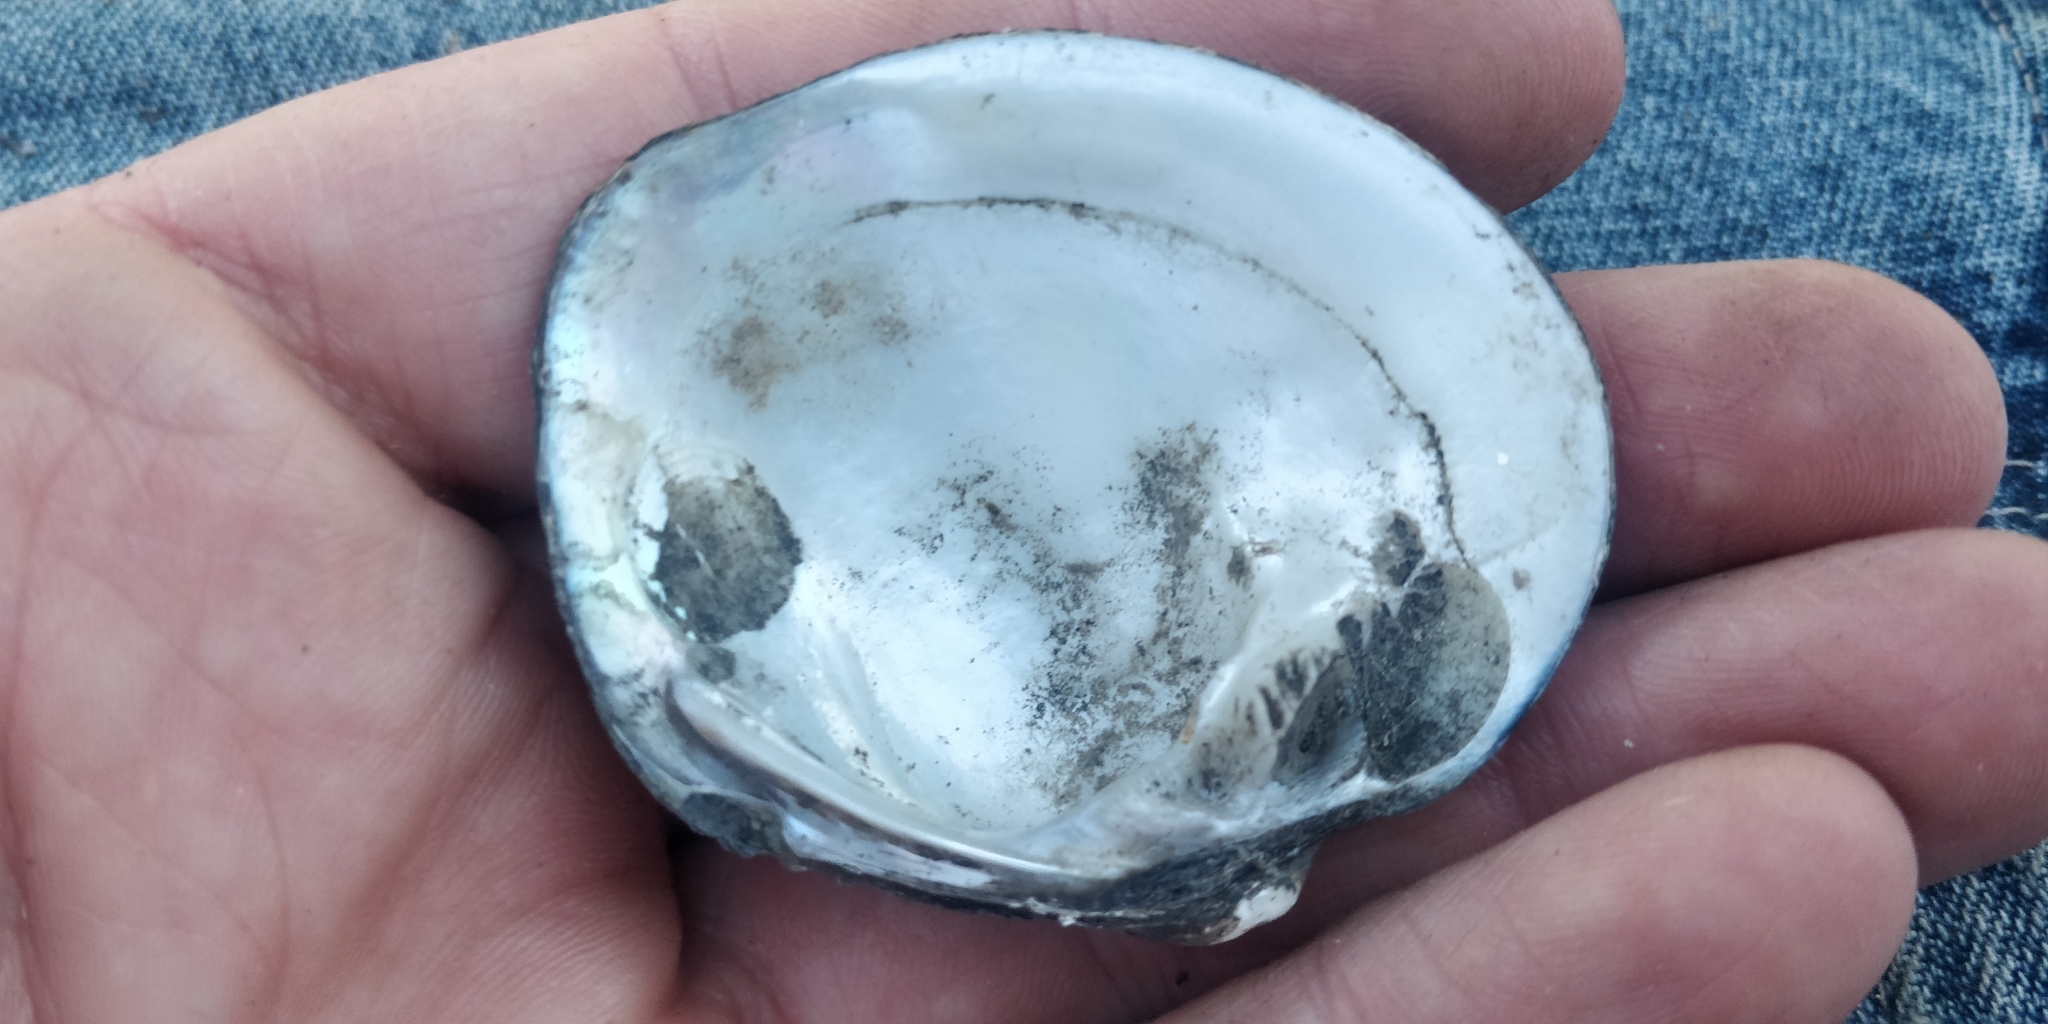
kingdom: Animalia
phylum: Mollusca
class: Bivalvia
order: Unionida
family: Unionidae
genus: Cyclonaias
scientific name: Cyclonaias pustulosa
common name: Pimpleback
